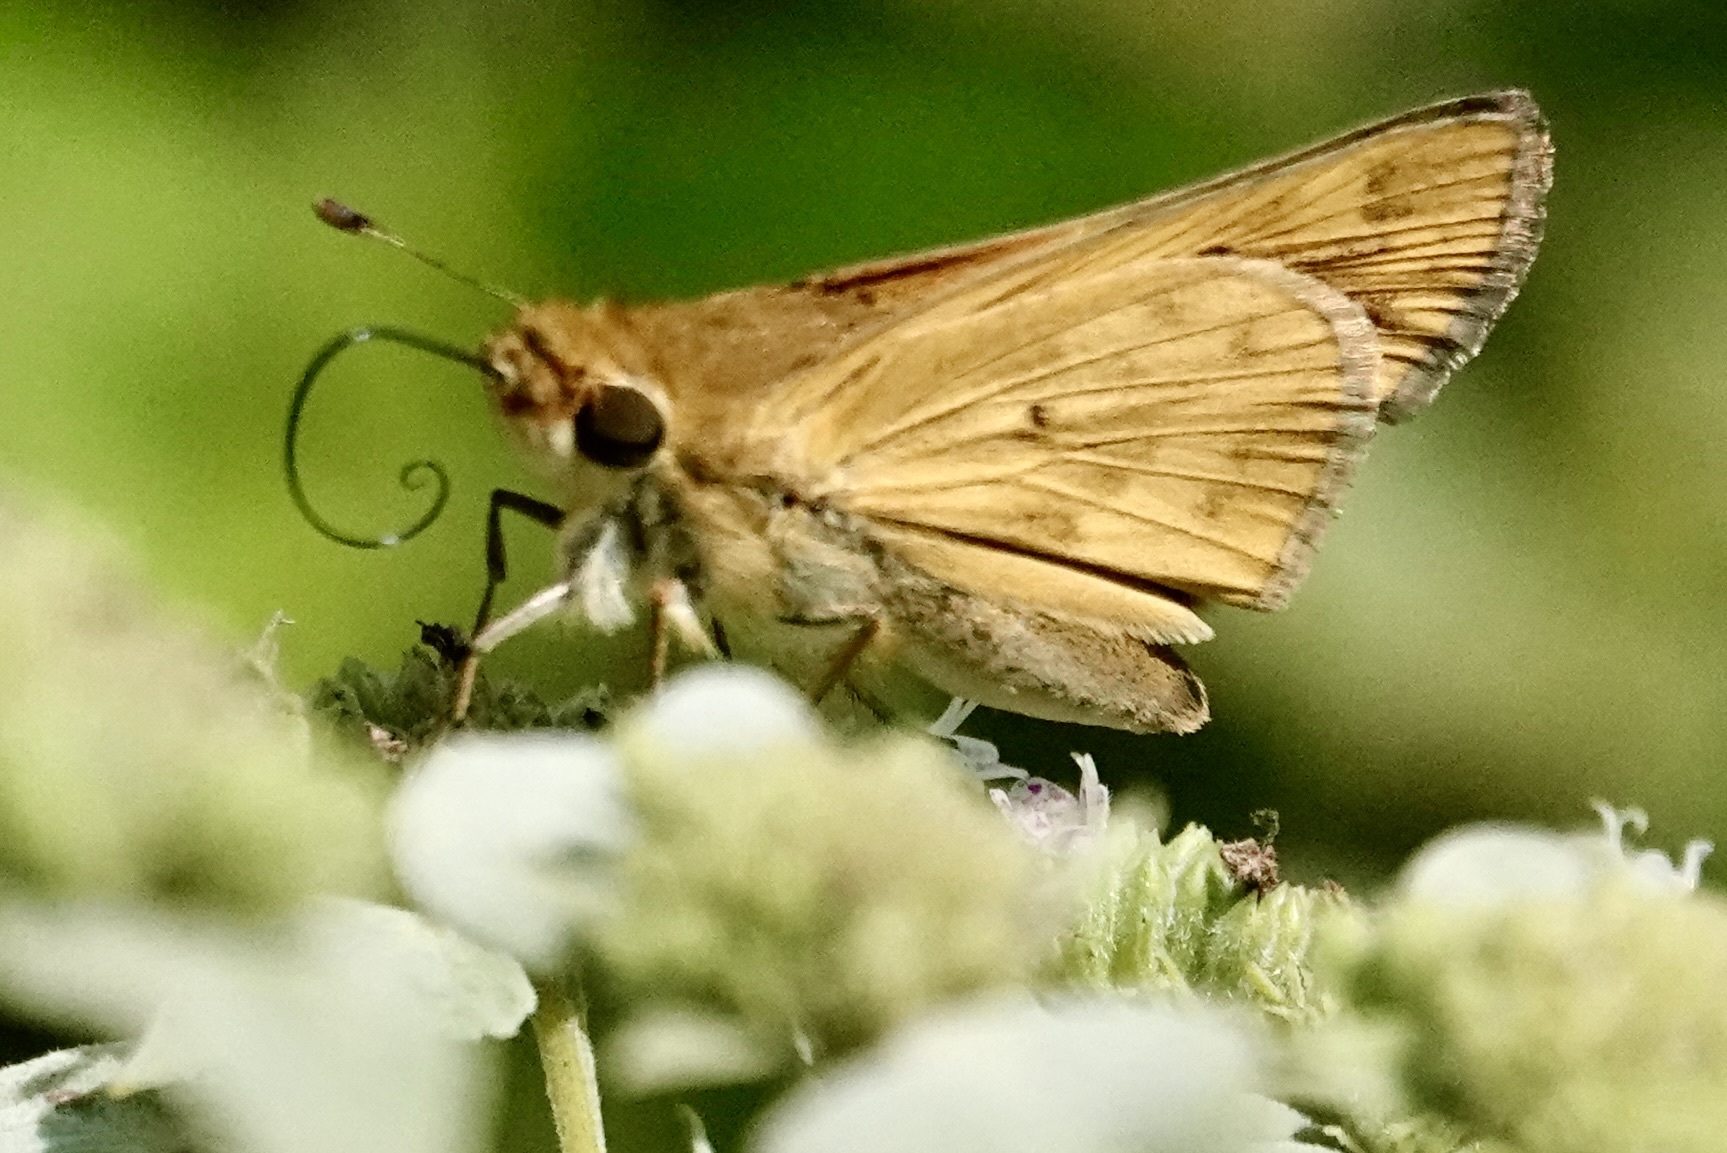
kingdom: Animalia
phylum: Arthropoda
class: Insecta
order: Lepidoptera
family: Hesperiidae
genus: Hylephila
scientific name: Hylephila phyleus
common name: Fiery skipper
